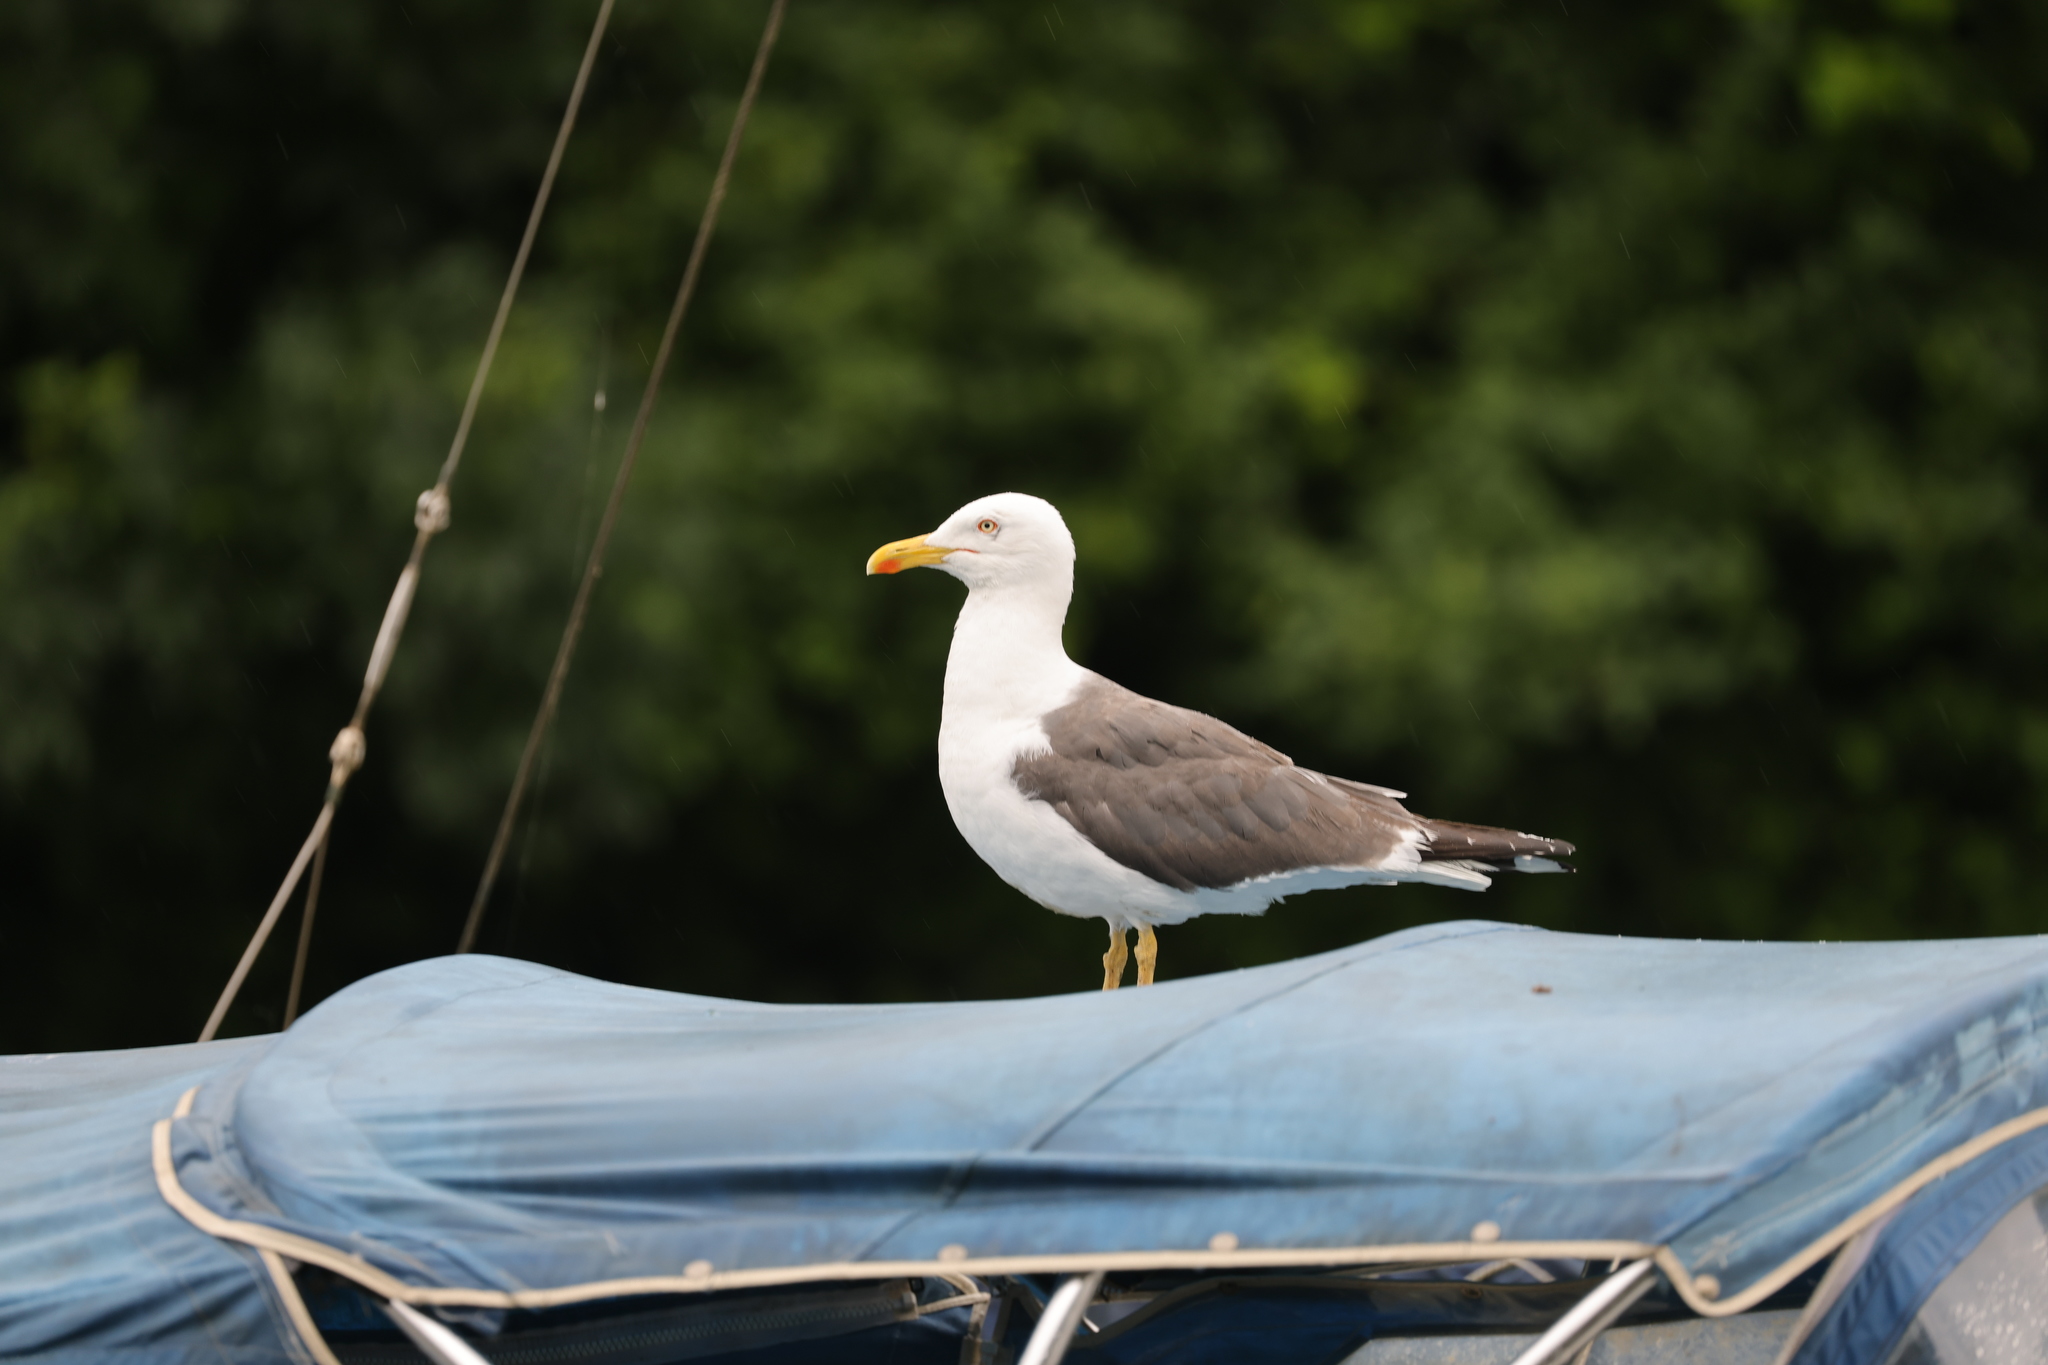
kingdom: Animalia
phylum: Chordata
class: Aves
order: Charadriiformes
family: Laridae
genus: Larus
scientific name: Larus fuscus
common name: Lesser black-backed gull
